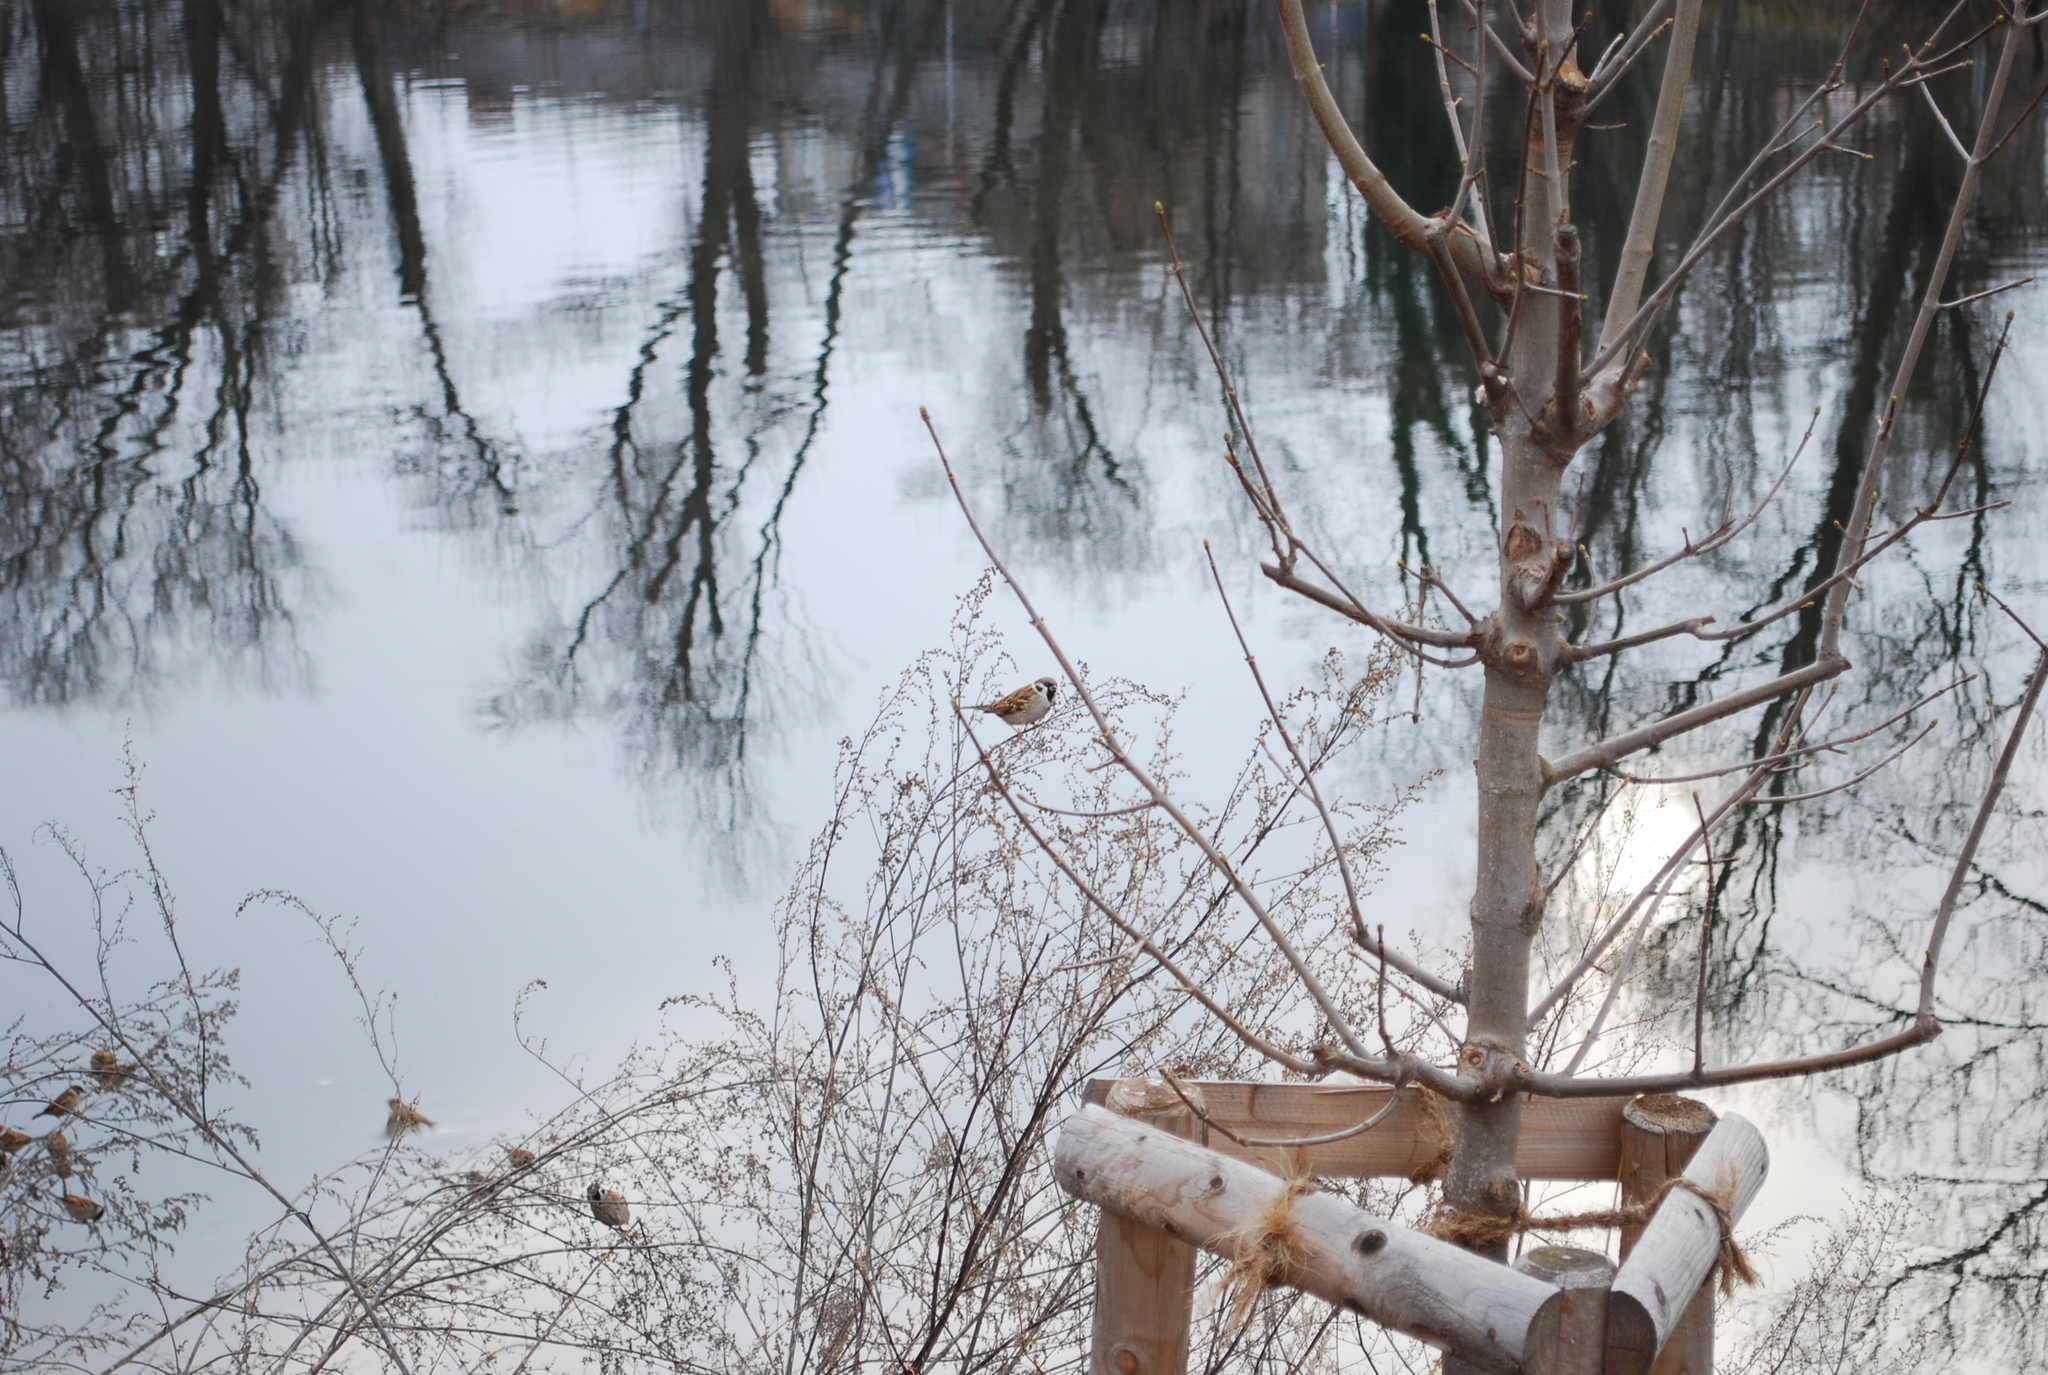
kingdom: Animalia
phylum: Chordata
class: Aves
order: Passeriformes
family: Passeridae
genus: Passer
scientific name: Passer montanus
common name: Eurasian tree sparrow
